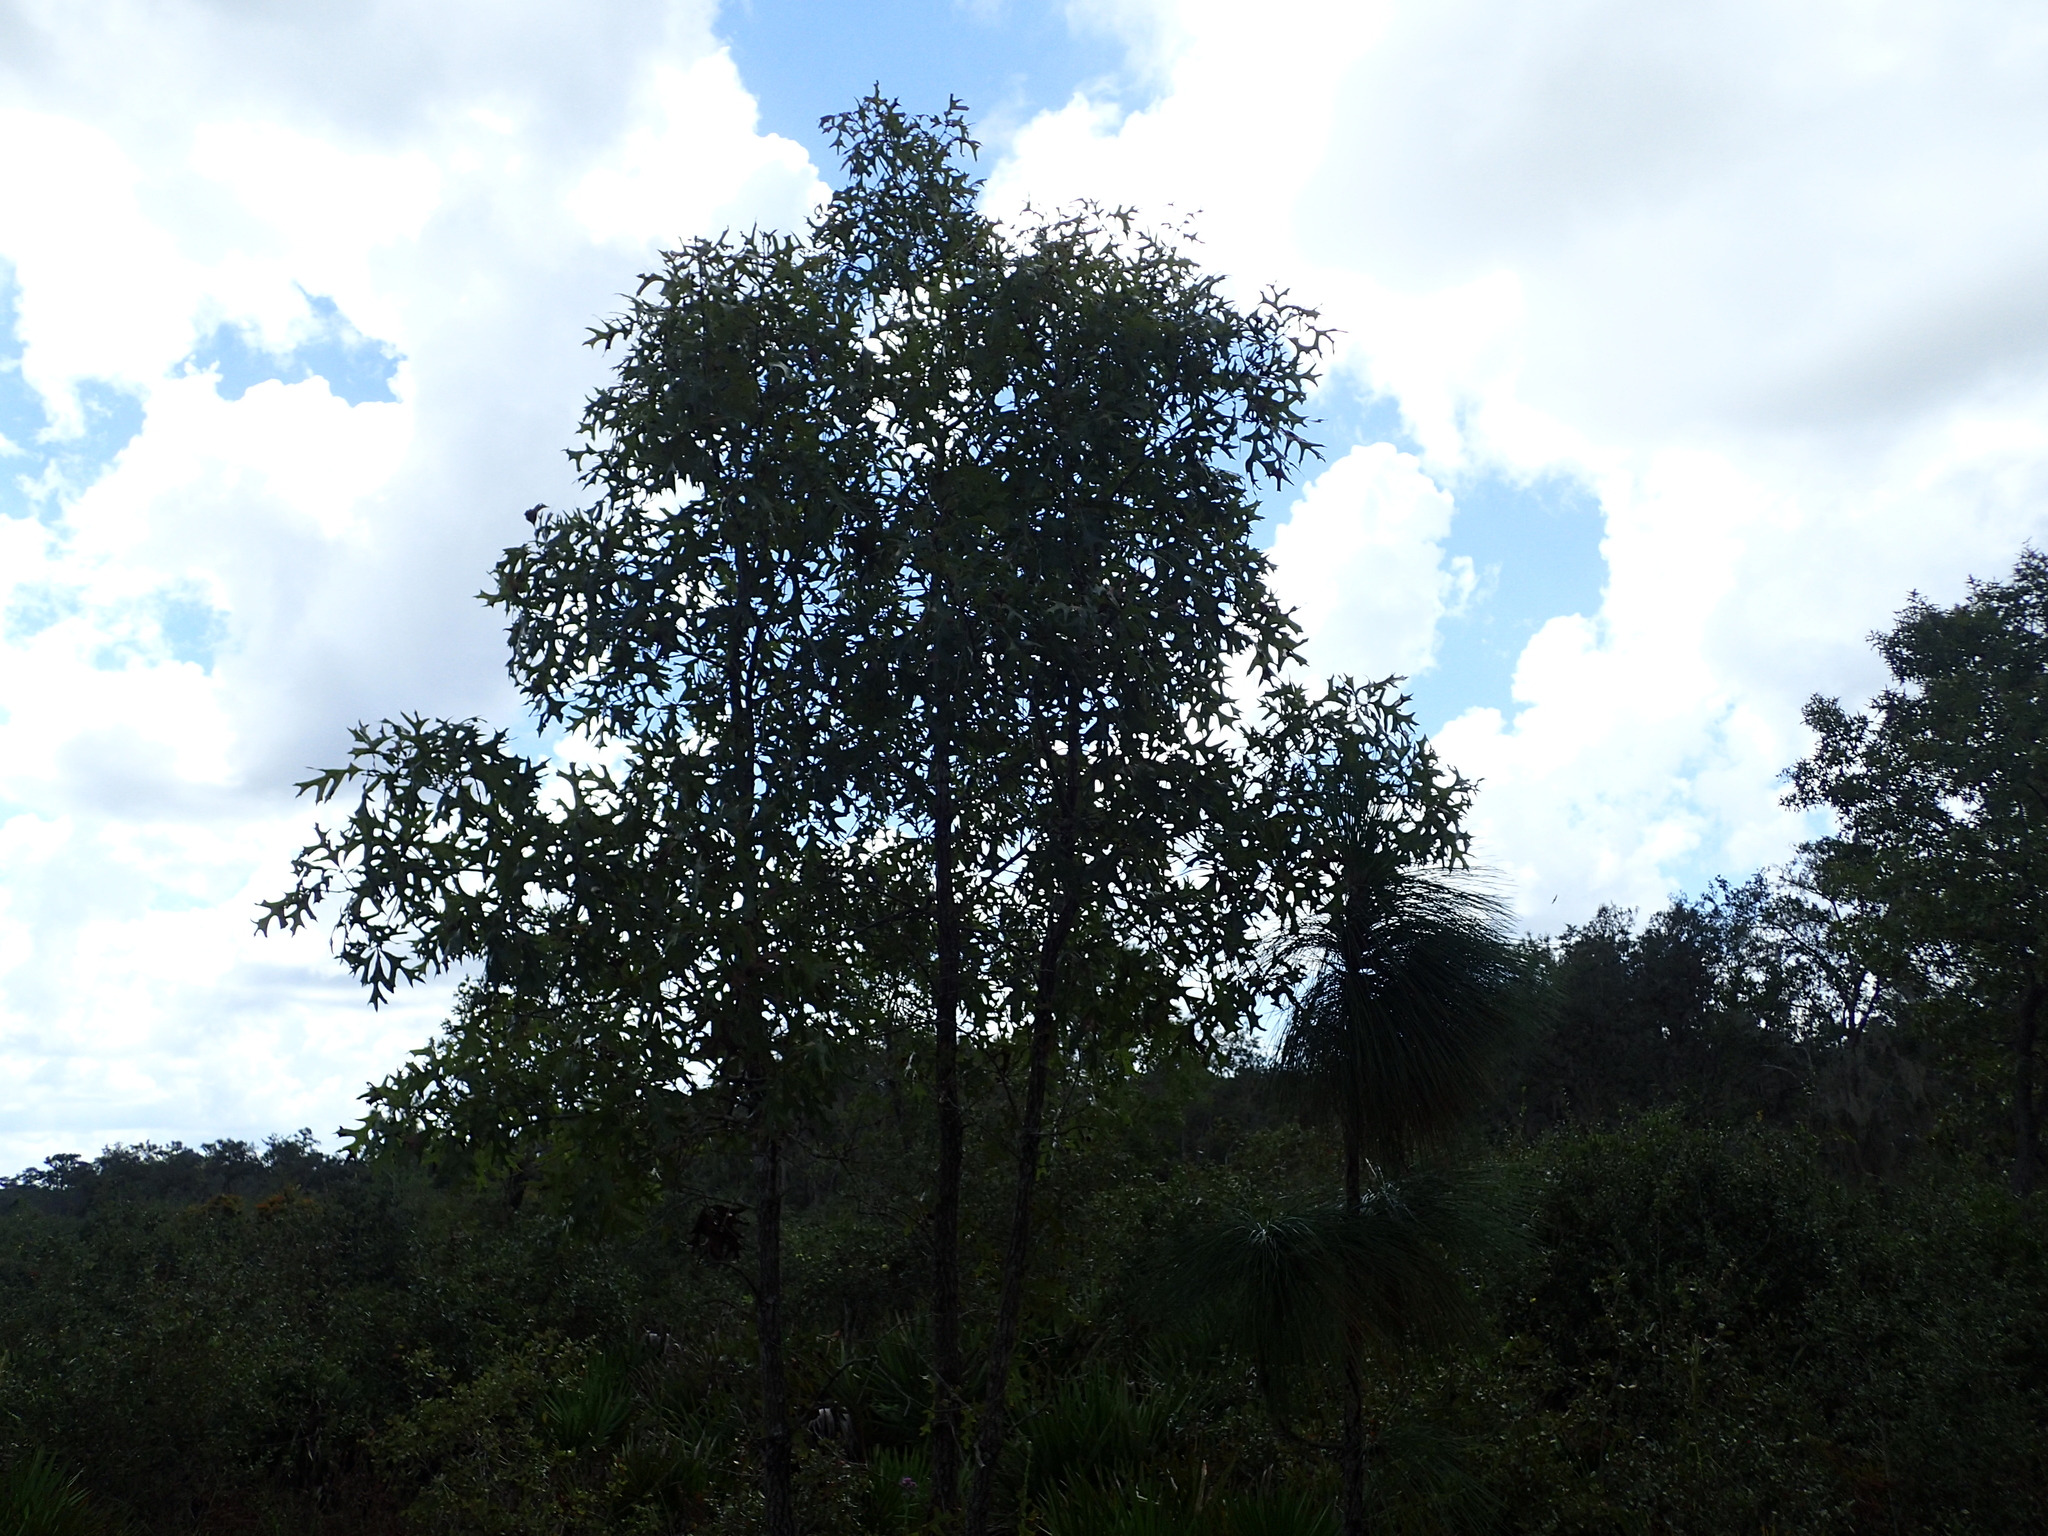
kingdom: Plantae
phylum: Tracheophyta
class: Magnoliopsida
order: Fagales
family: Fagaceae
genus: Quercus
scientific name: Quercus laevis
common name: Turkey oak
